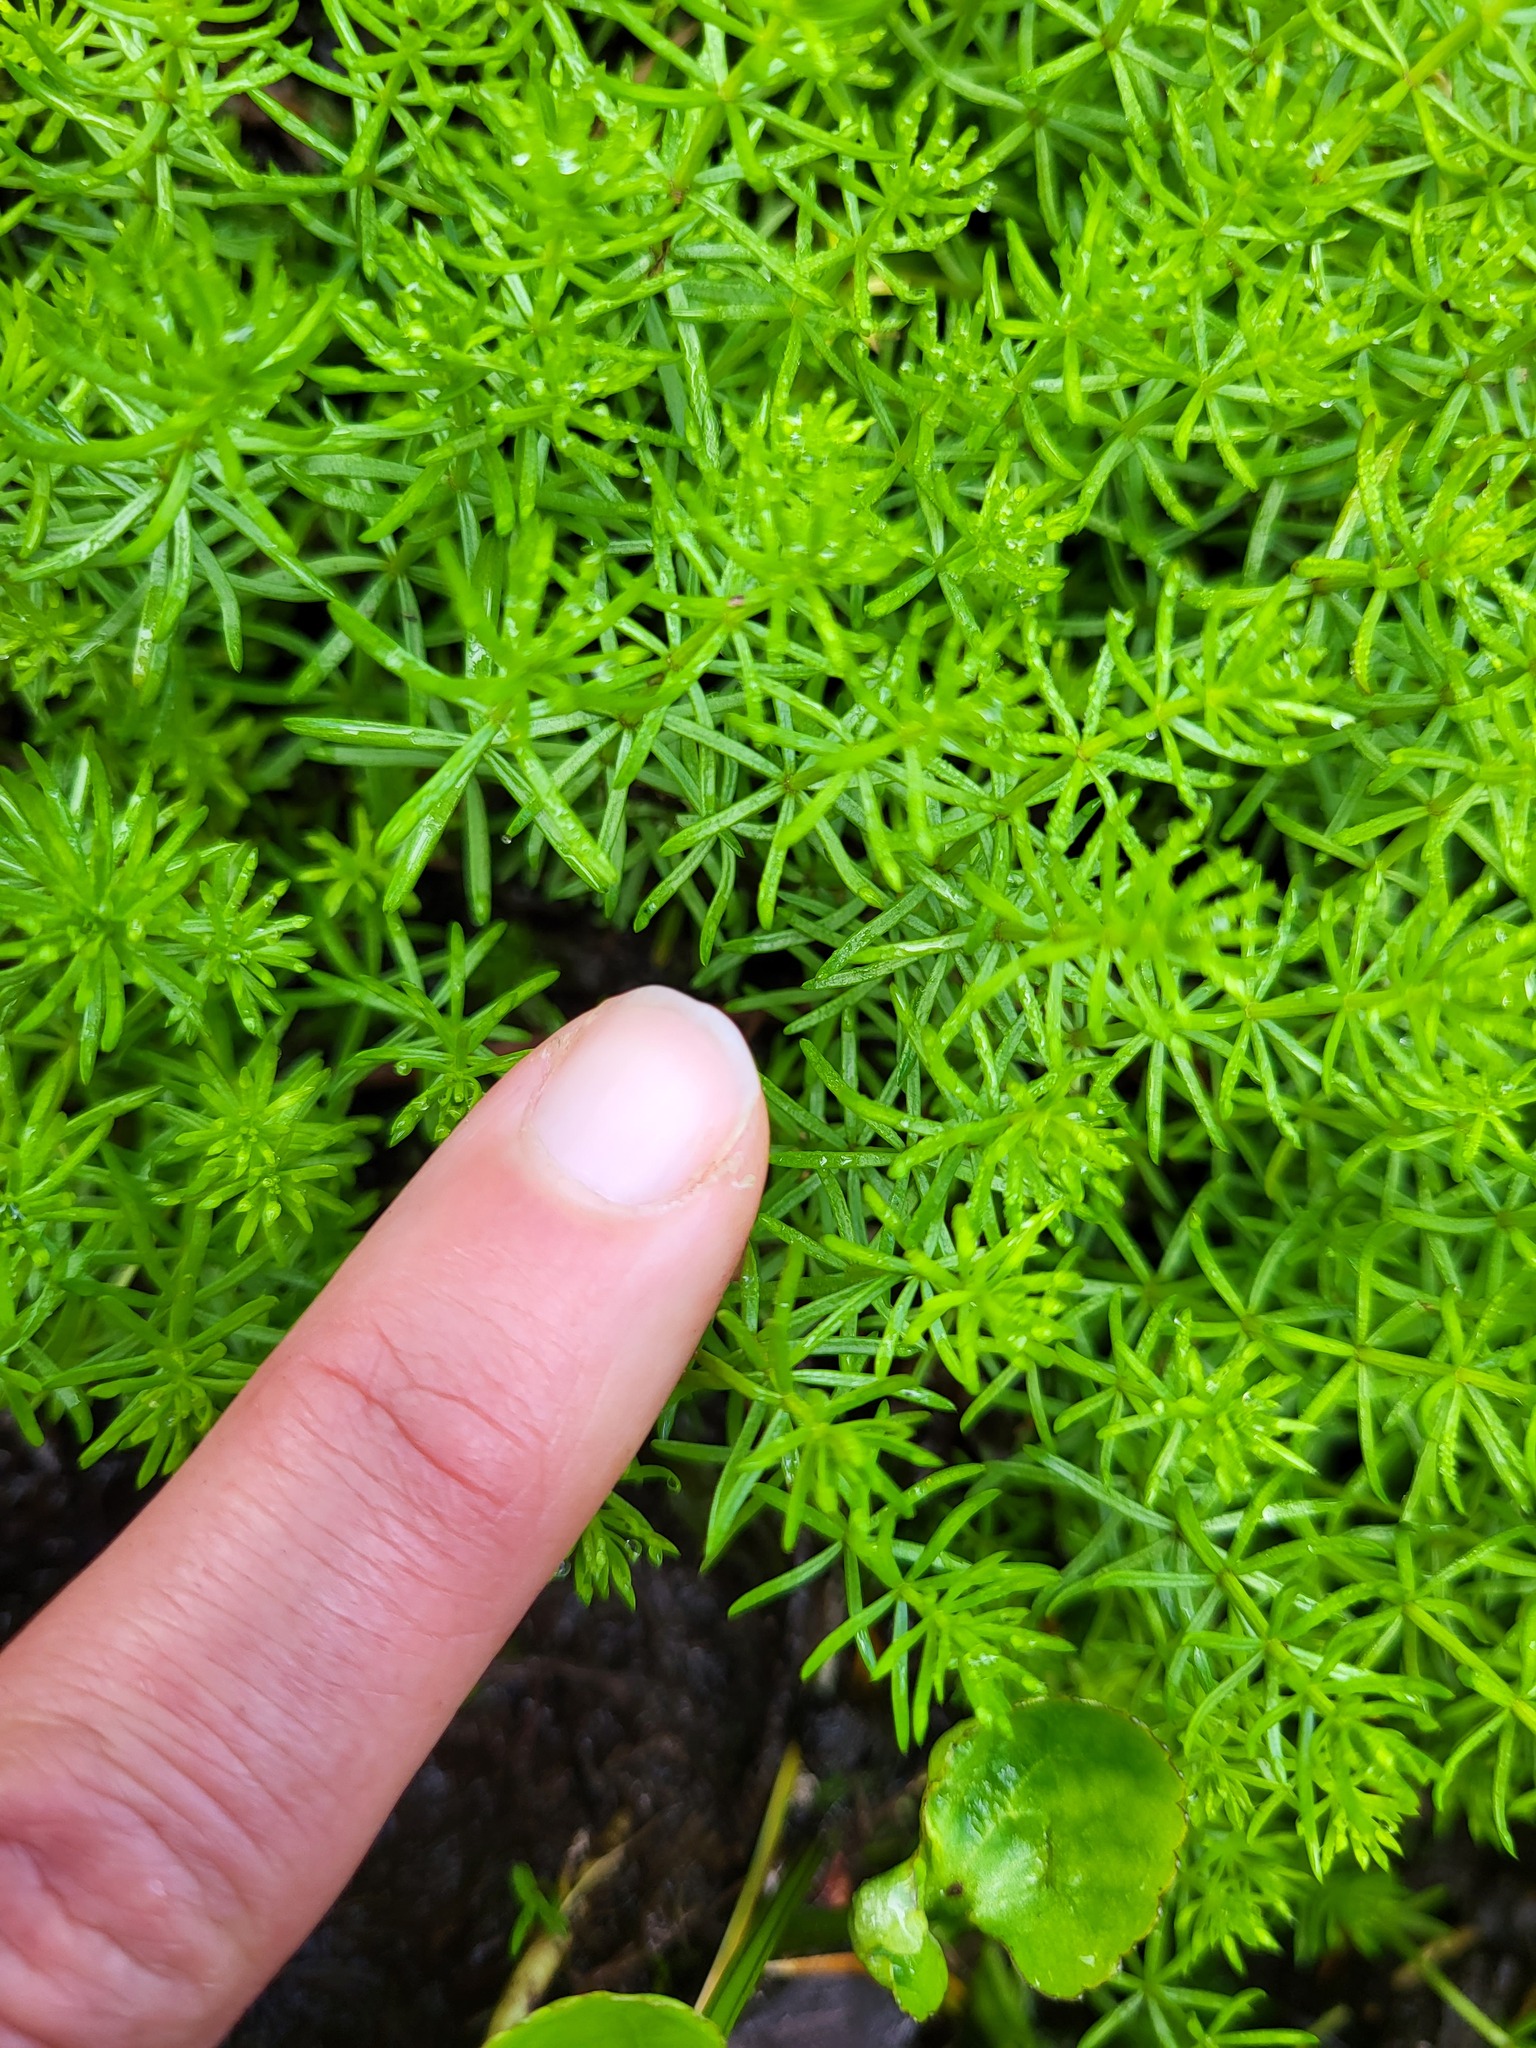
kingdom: Plantae
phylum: Tracheophyta
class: Magnoliopsida
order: Lamiales
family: Plantaginaceae
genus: Hippuris
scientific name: Hippuris montana
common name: Mountain mare's-tail
